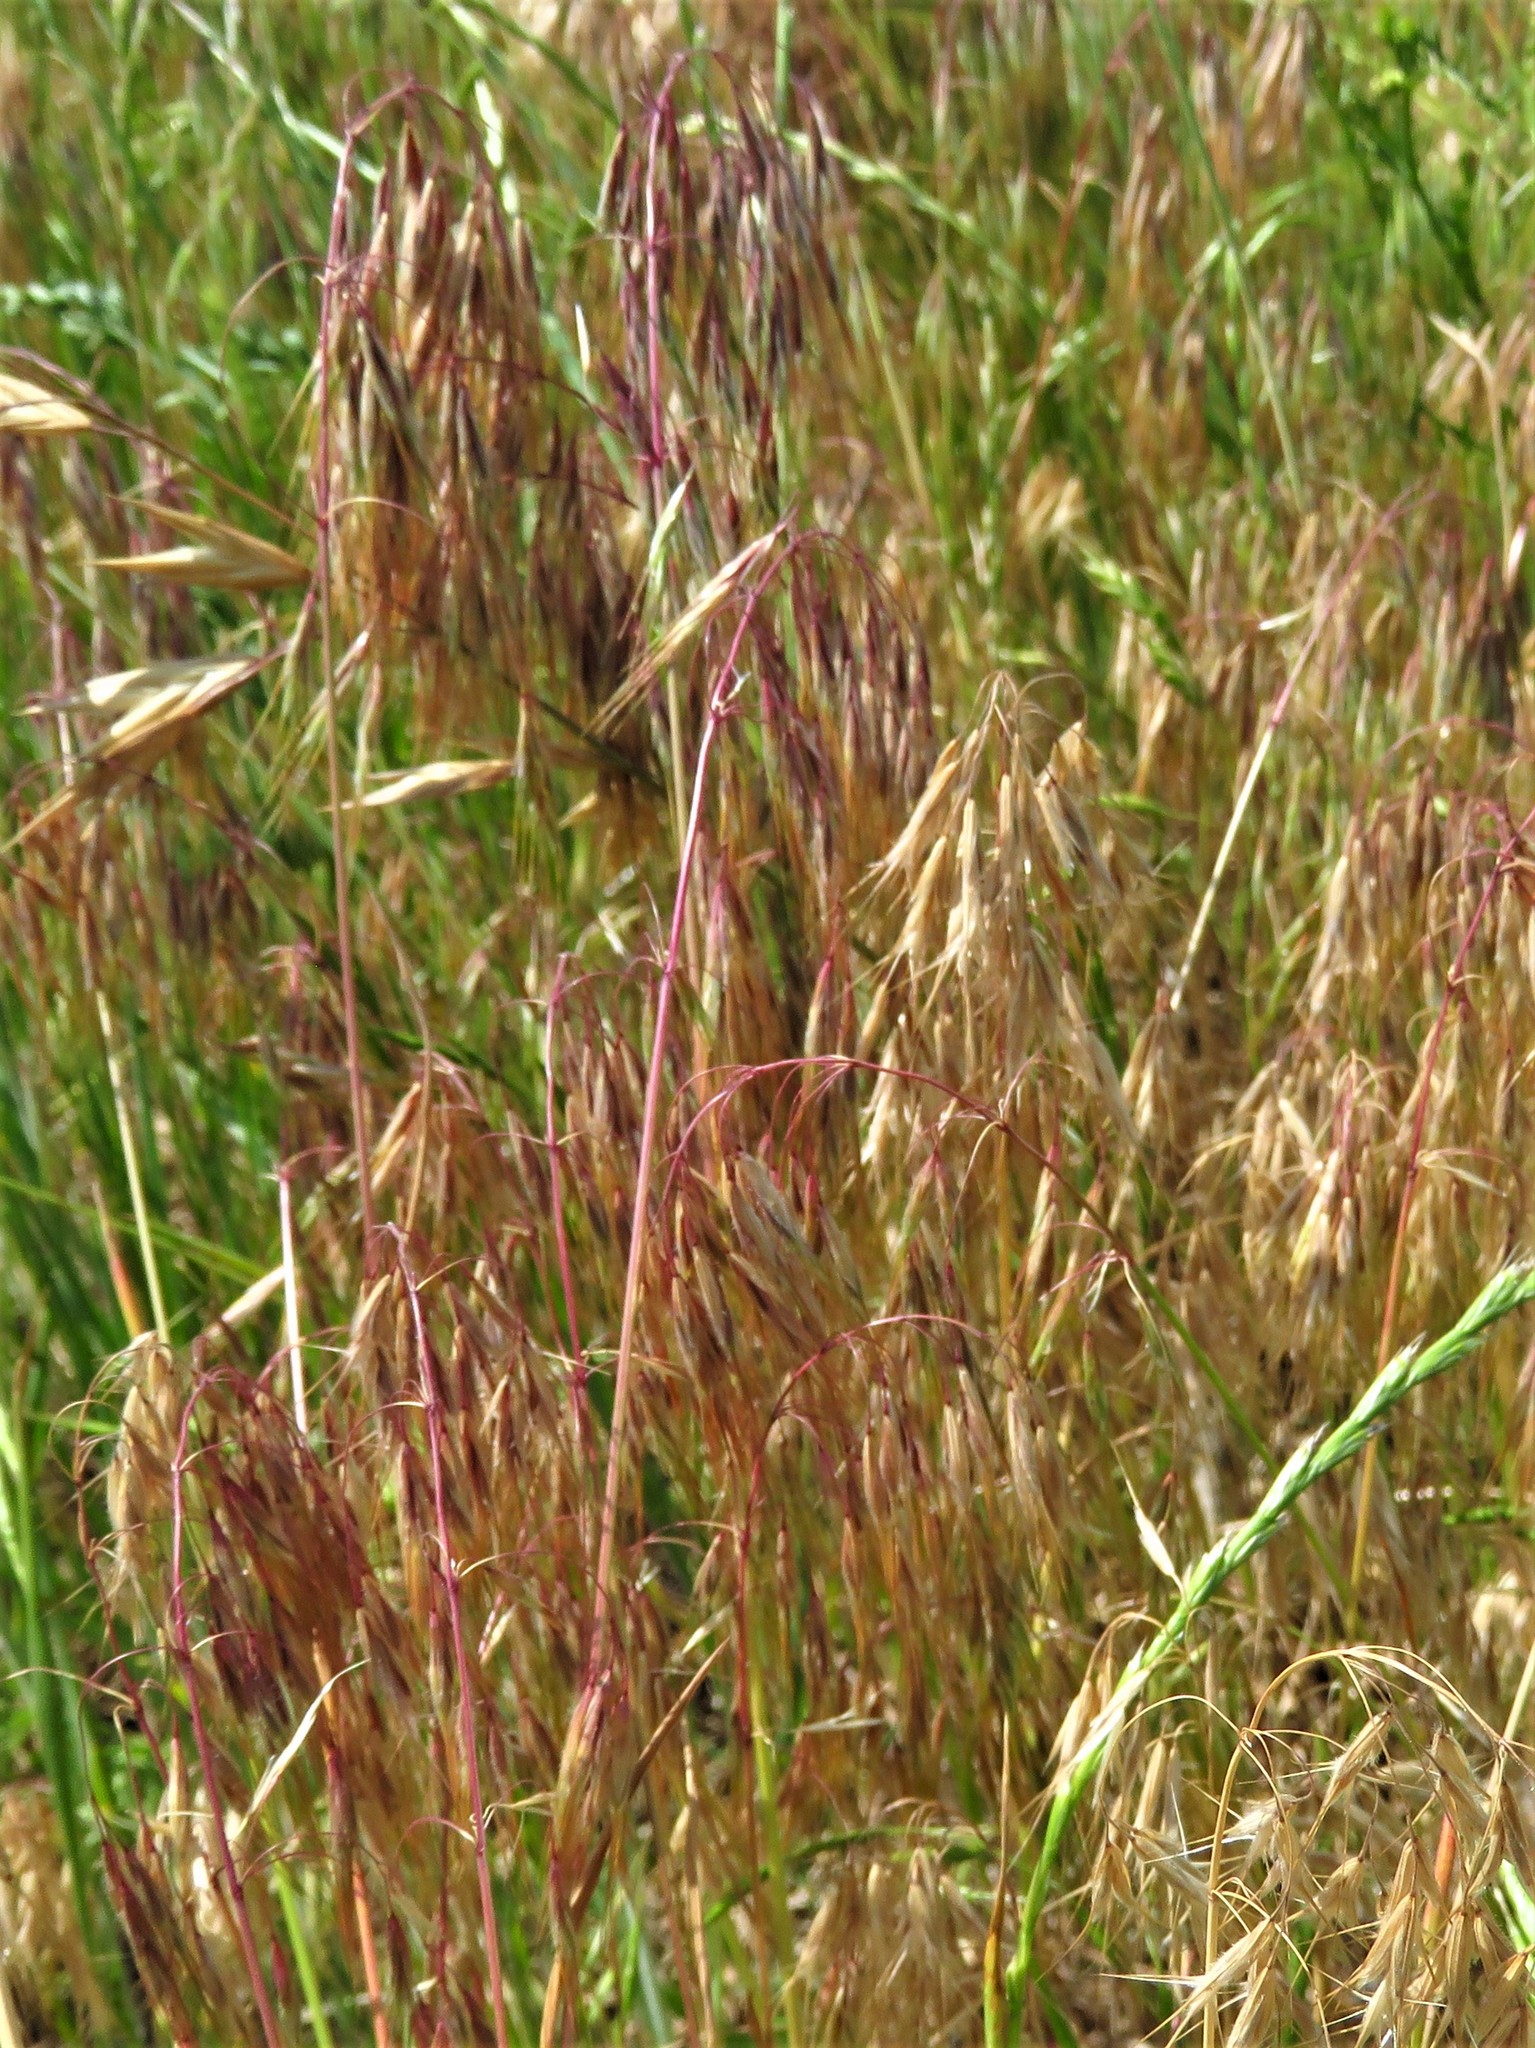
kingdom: Plantae
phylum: Tracheophyta
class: Liliopsida
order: Poales
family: Poaceae
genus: Bromus
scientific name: Bromus tectorum
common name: Cheatgrass
